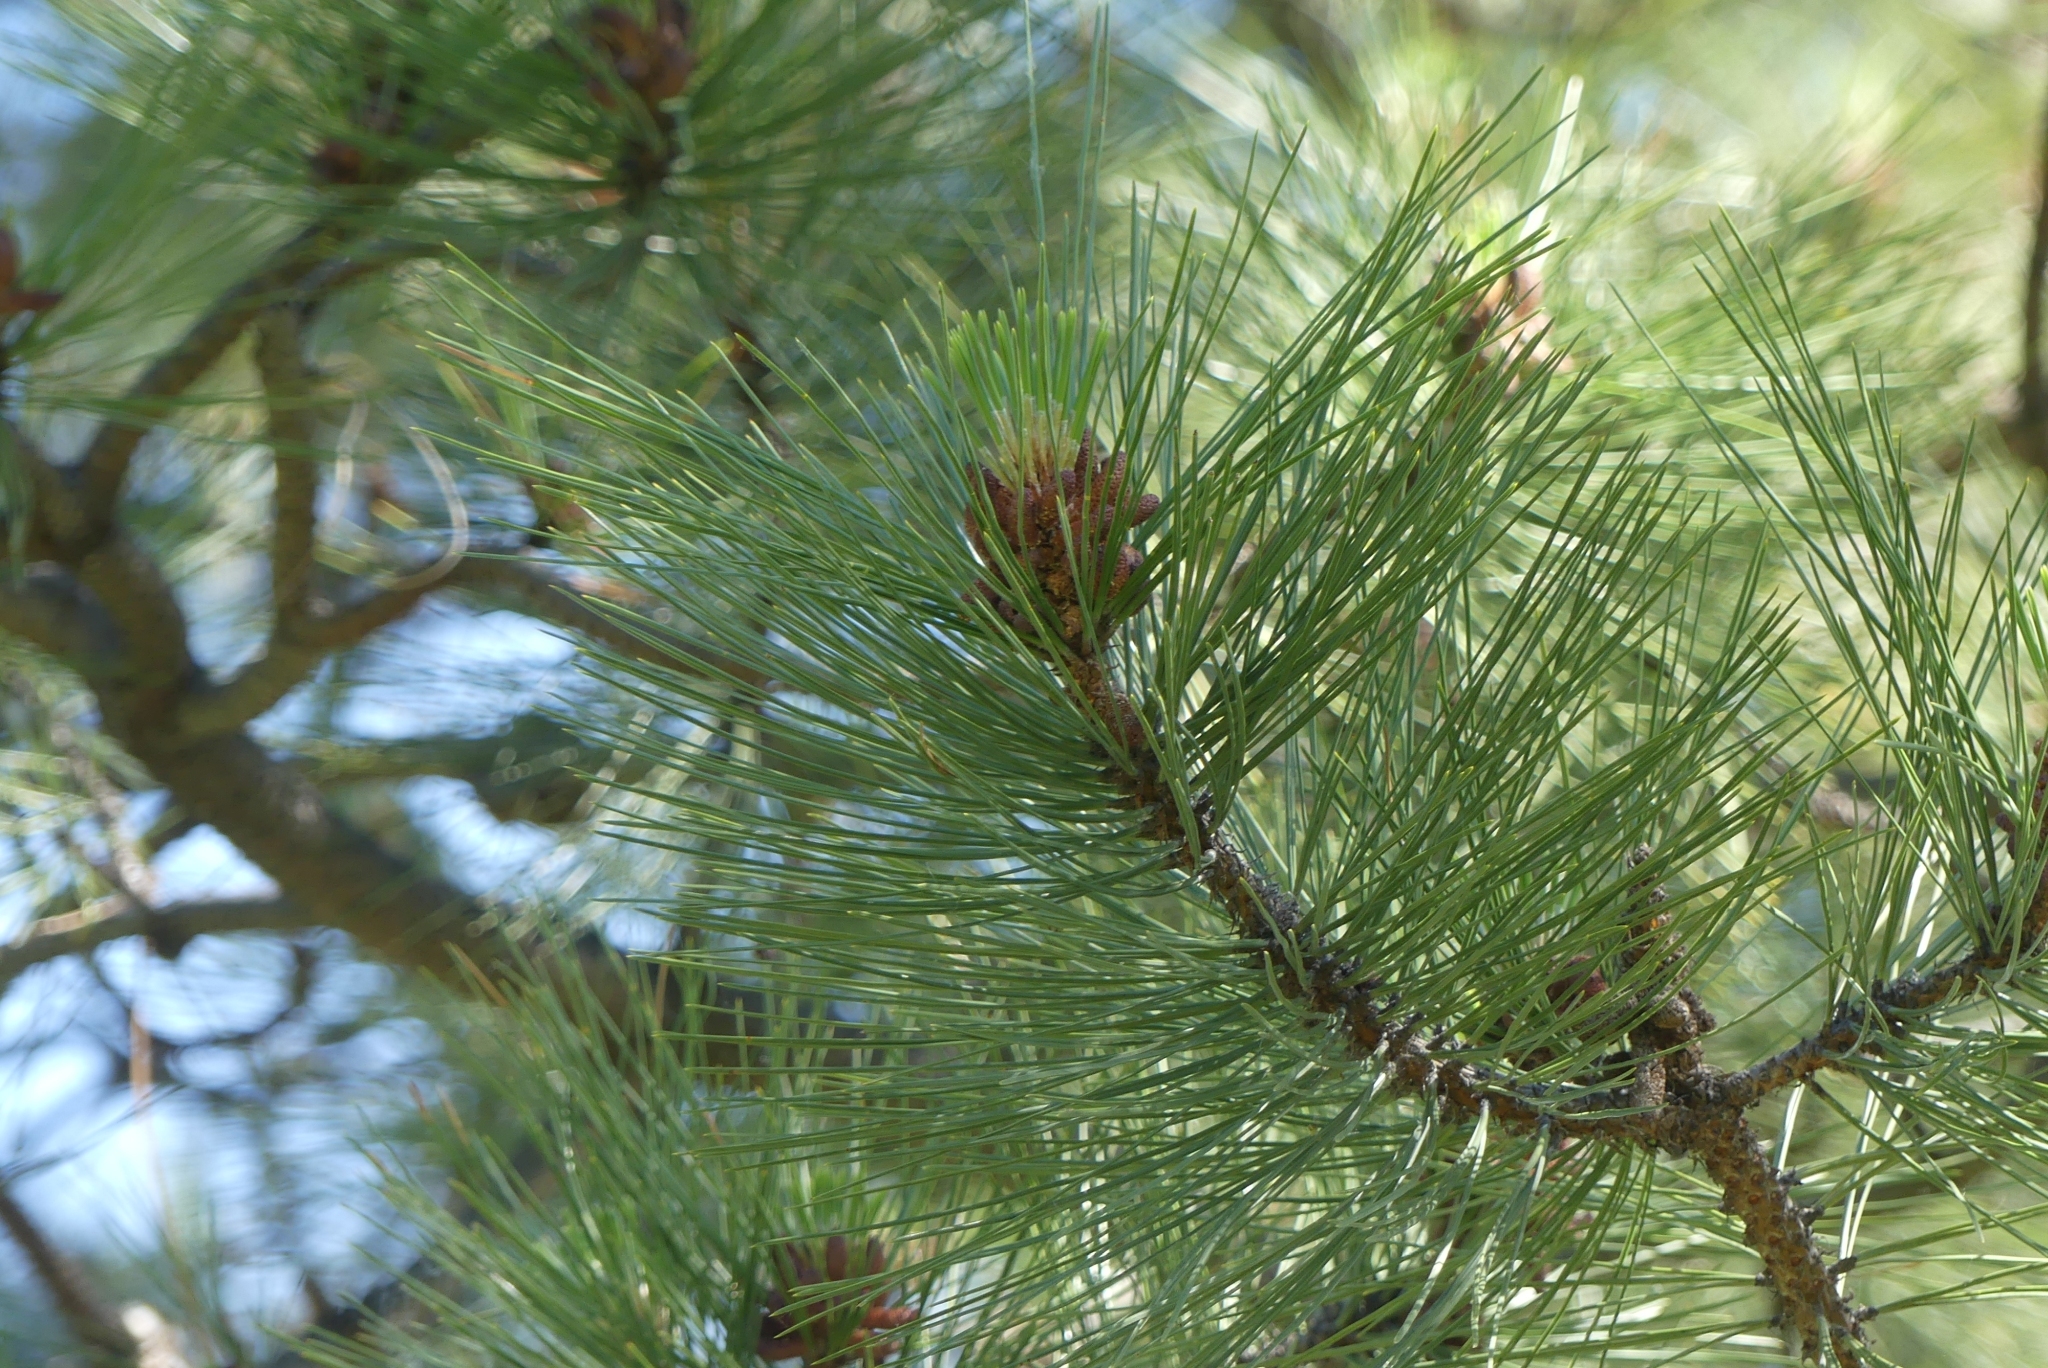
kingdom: Plantae
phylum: Tracheophyta
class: Pinopsida
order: Pinales
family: Pinaceae
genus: Pinus
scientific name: Pinus ponderosa
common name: Western yellow-pine
